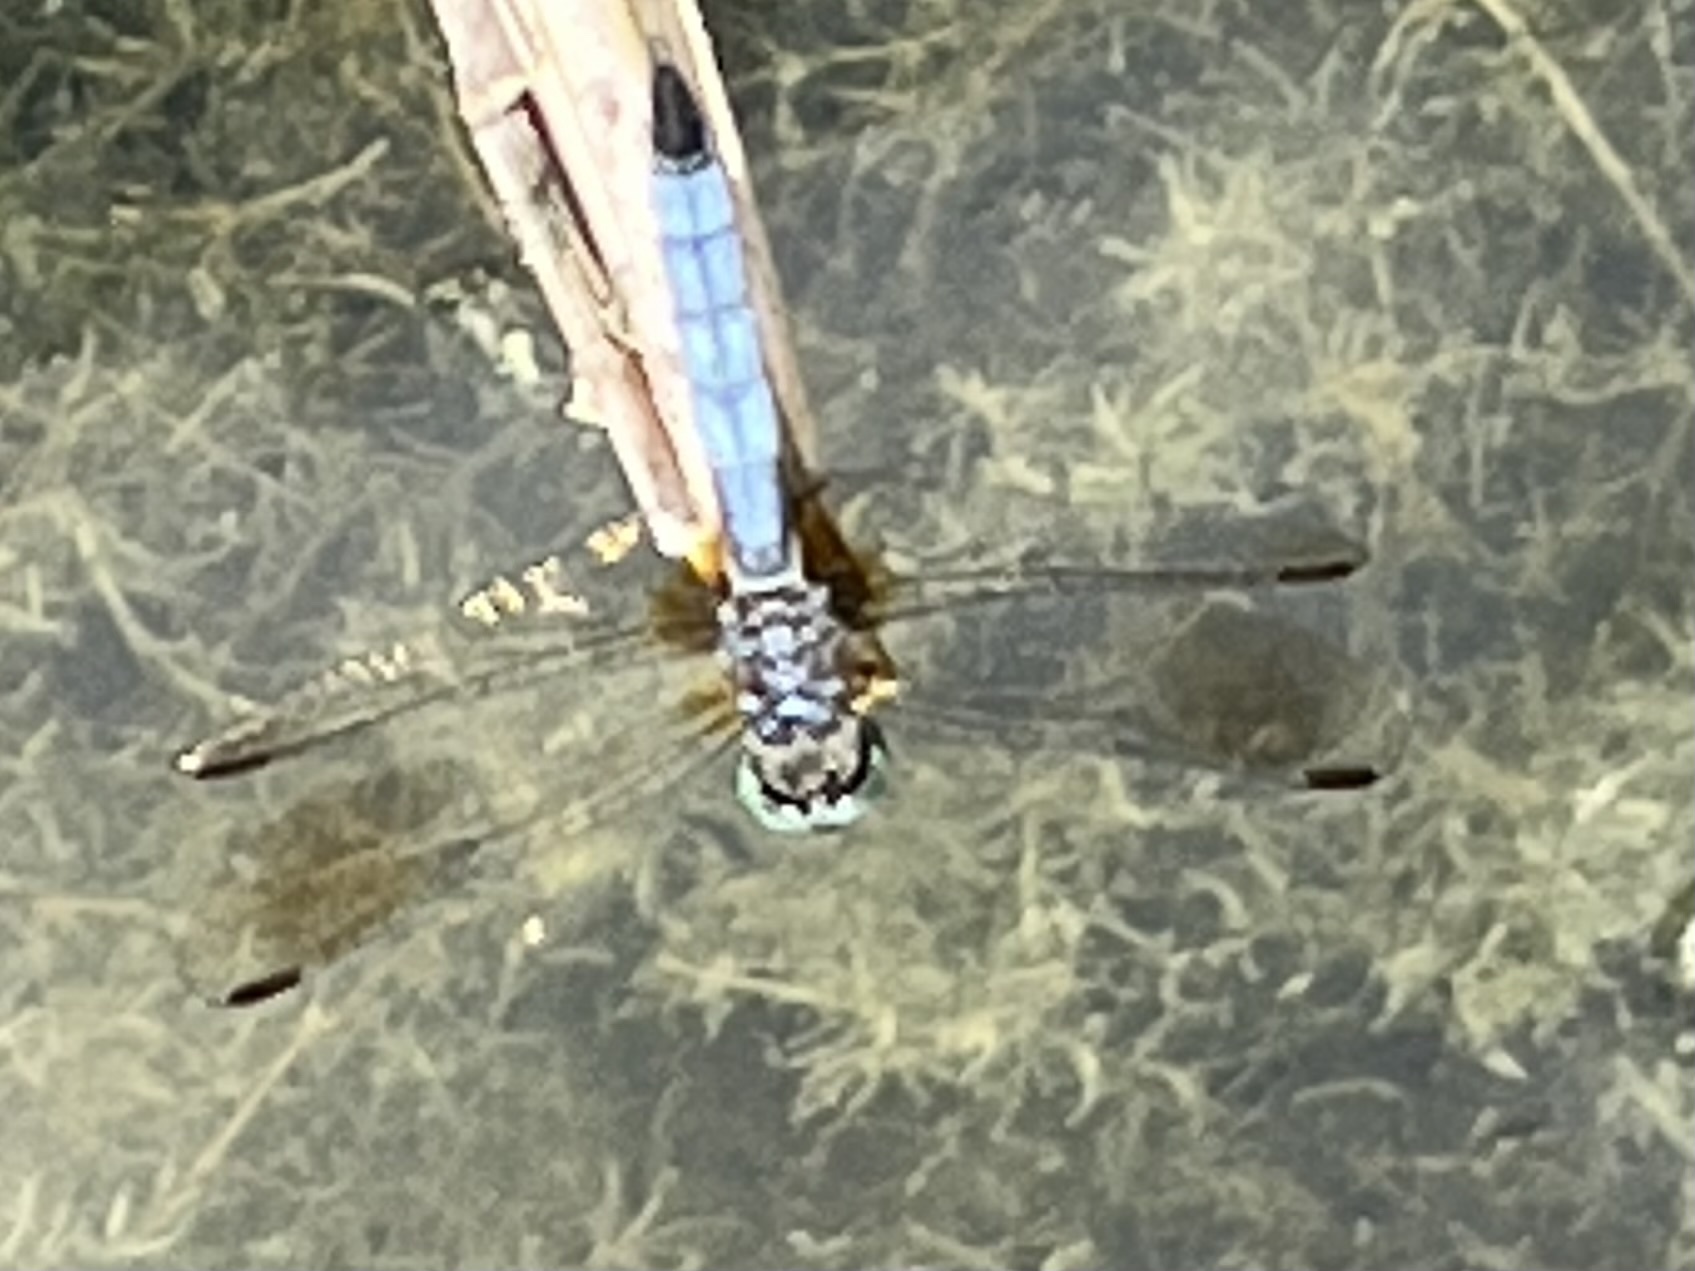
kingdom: Animalia
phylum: Arthropoda
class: Insecta
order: Odonata
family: Libellulidae
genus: Pachydiplax
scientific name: Pachydiplax longipennis
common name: Blue dasher
